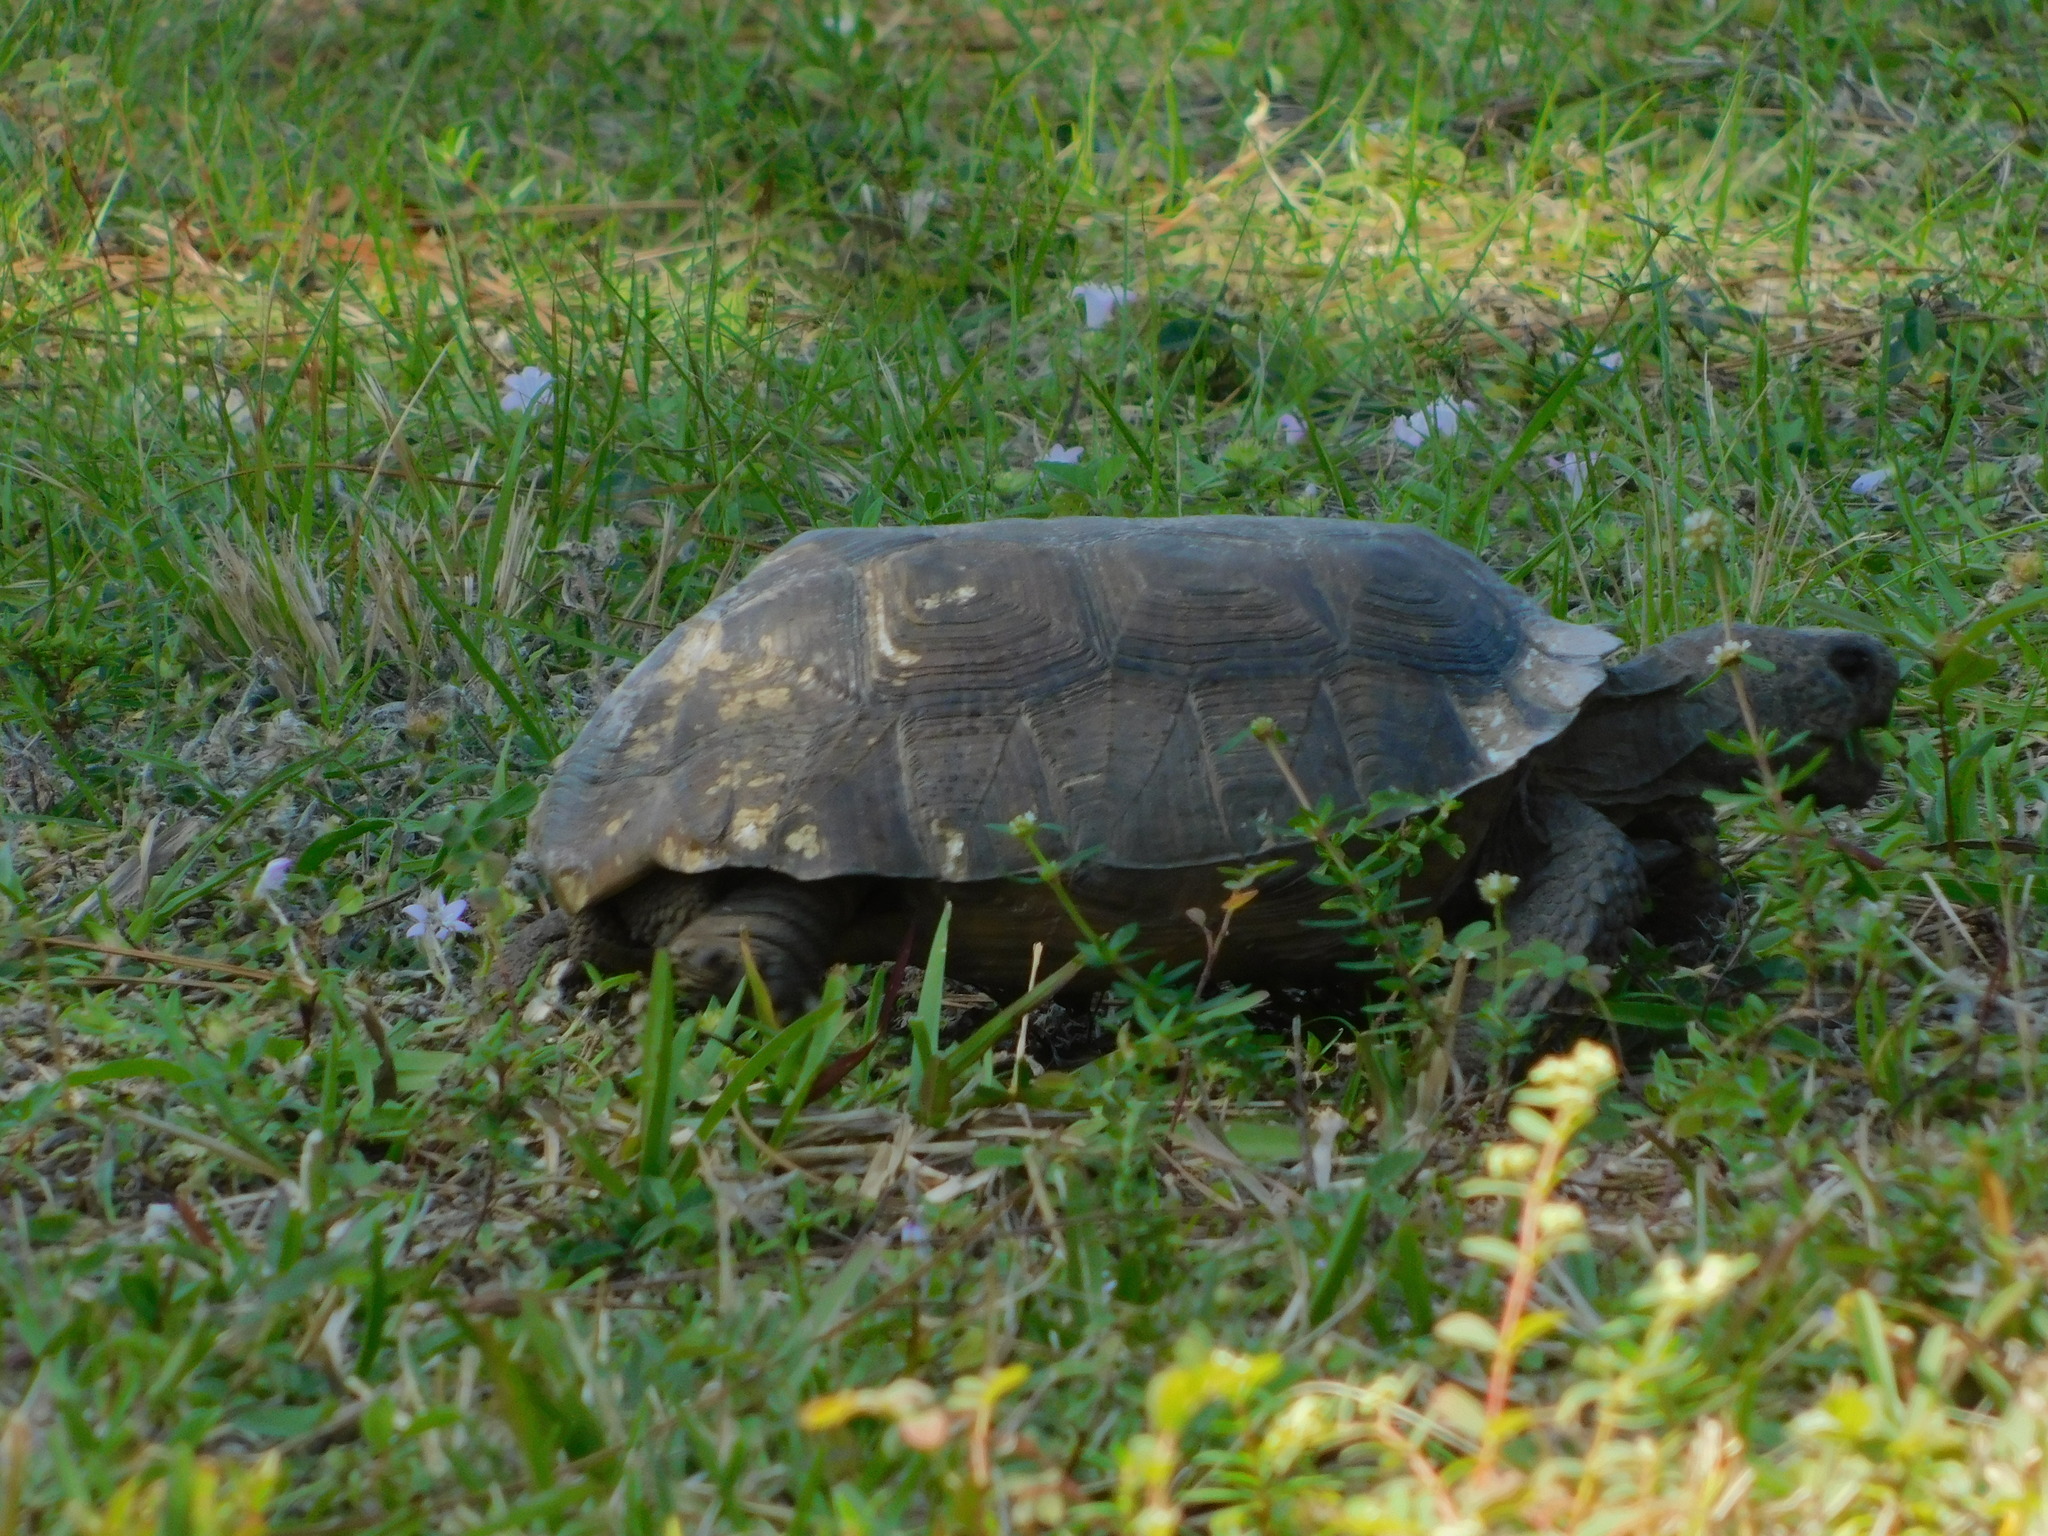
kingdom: Animalia
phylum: Chordata
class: Testudines
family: Testudinidae
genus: Gopherus
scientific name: Gopherus polyphemus
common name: Florida gopher tortoise
